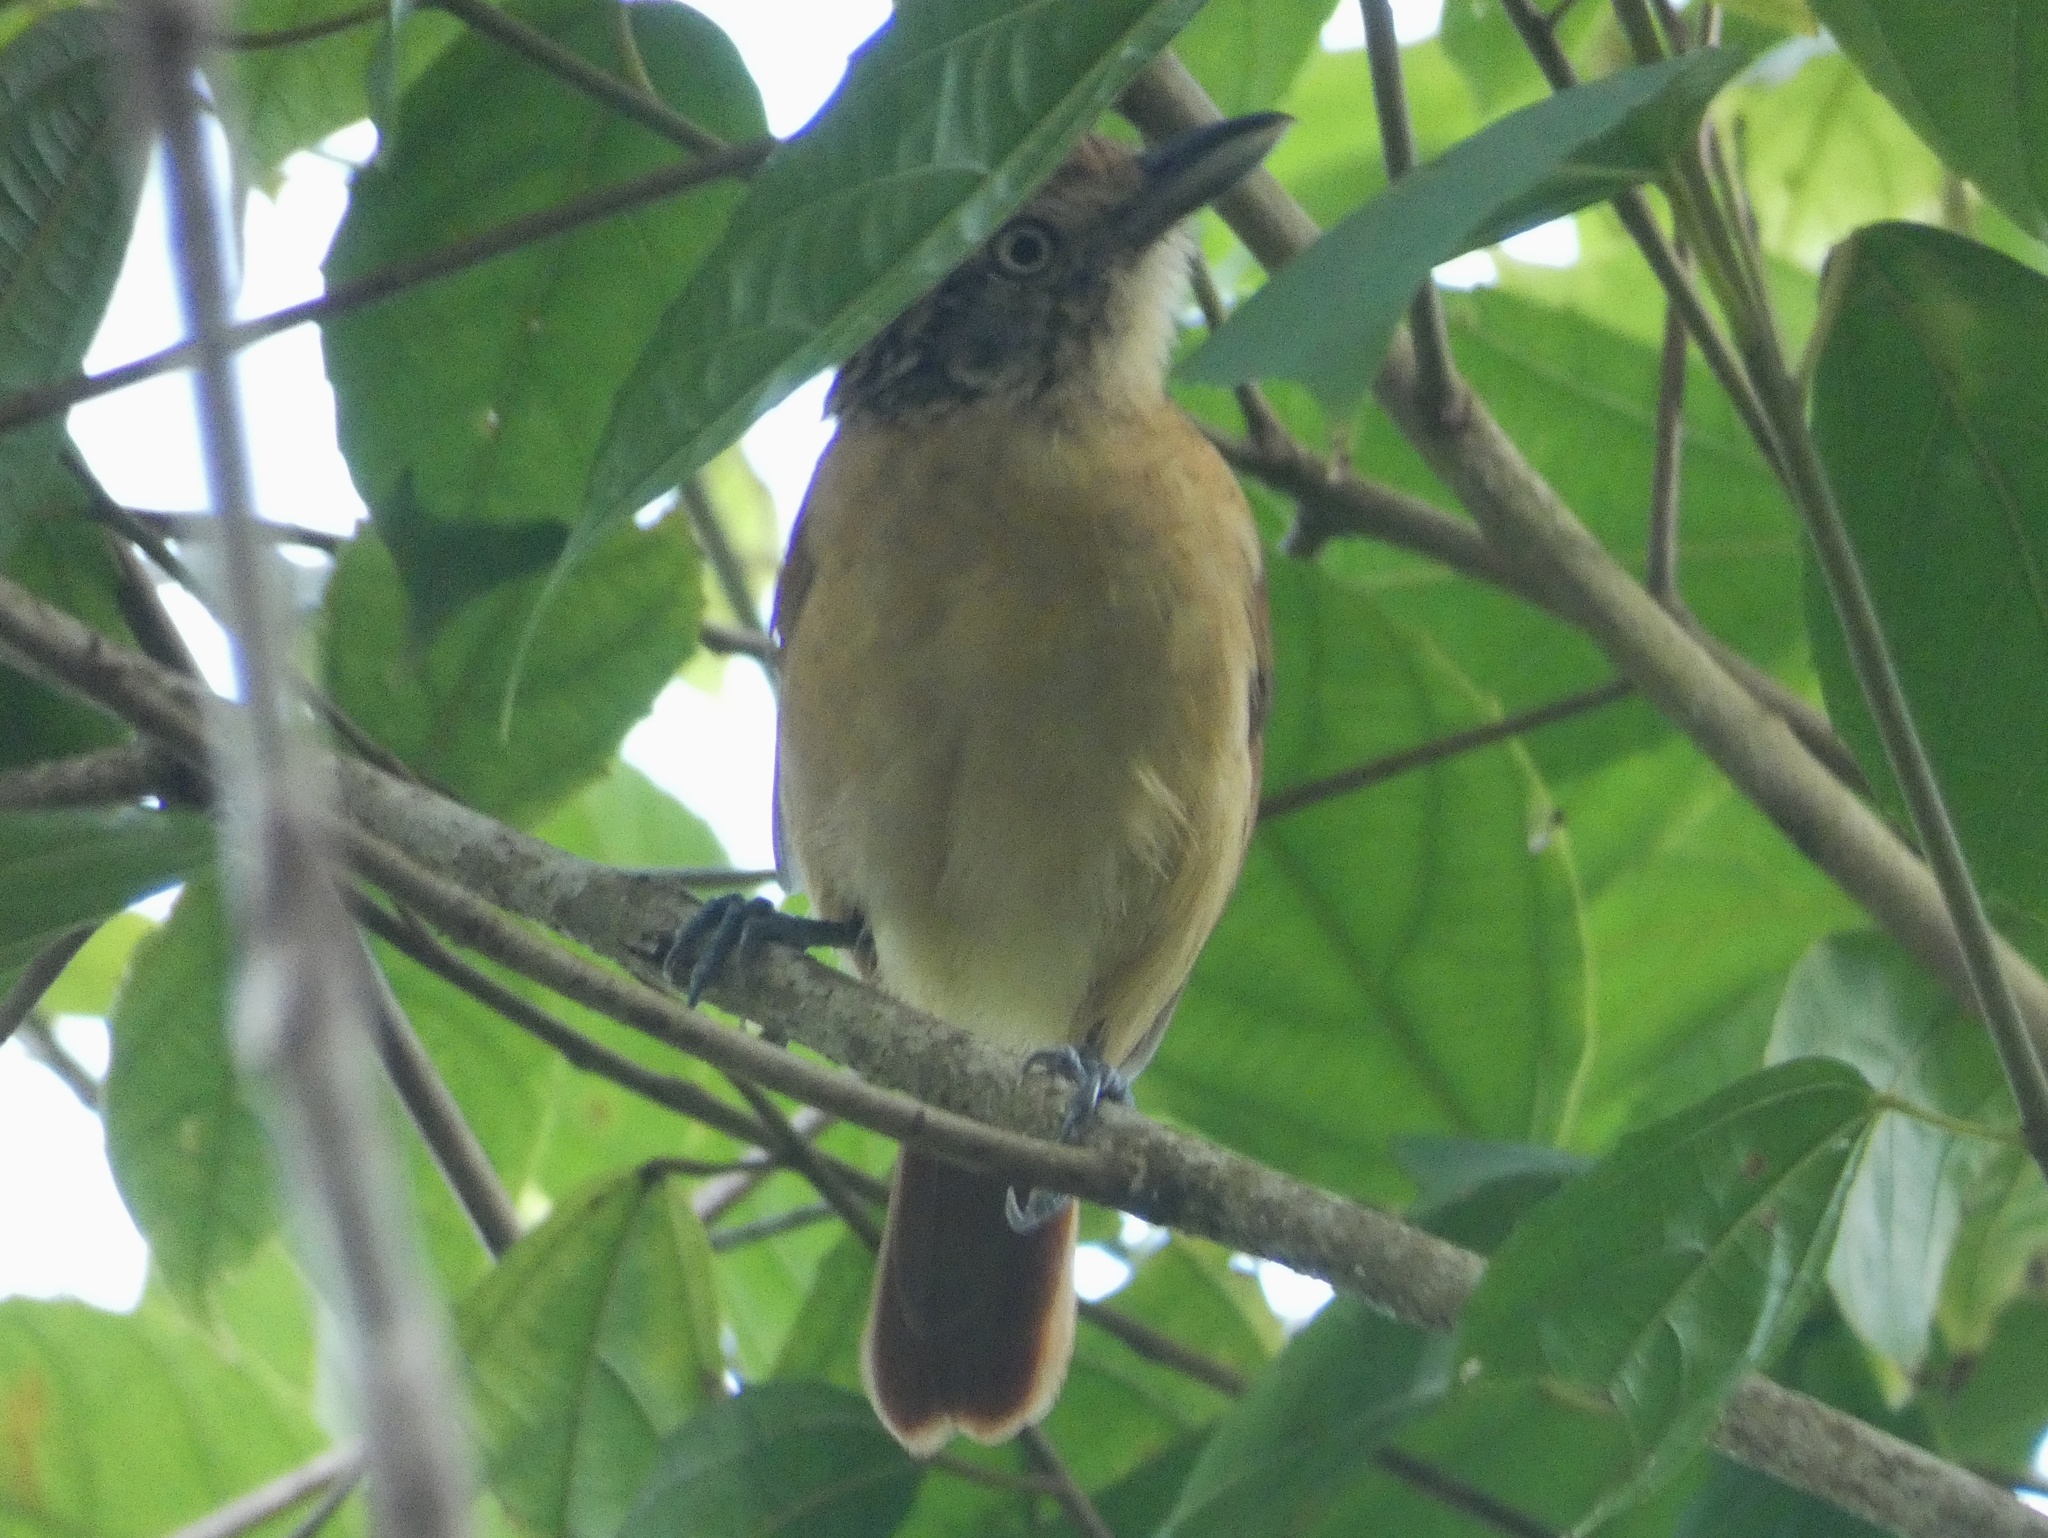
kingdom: Animalia
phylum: Chordata
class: Aves
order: Passeriformes
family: Thamnophilidae
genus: Thamnophilus
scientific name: Thamnophilus doliatus
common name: Barred antshrike
